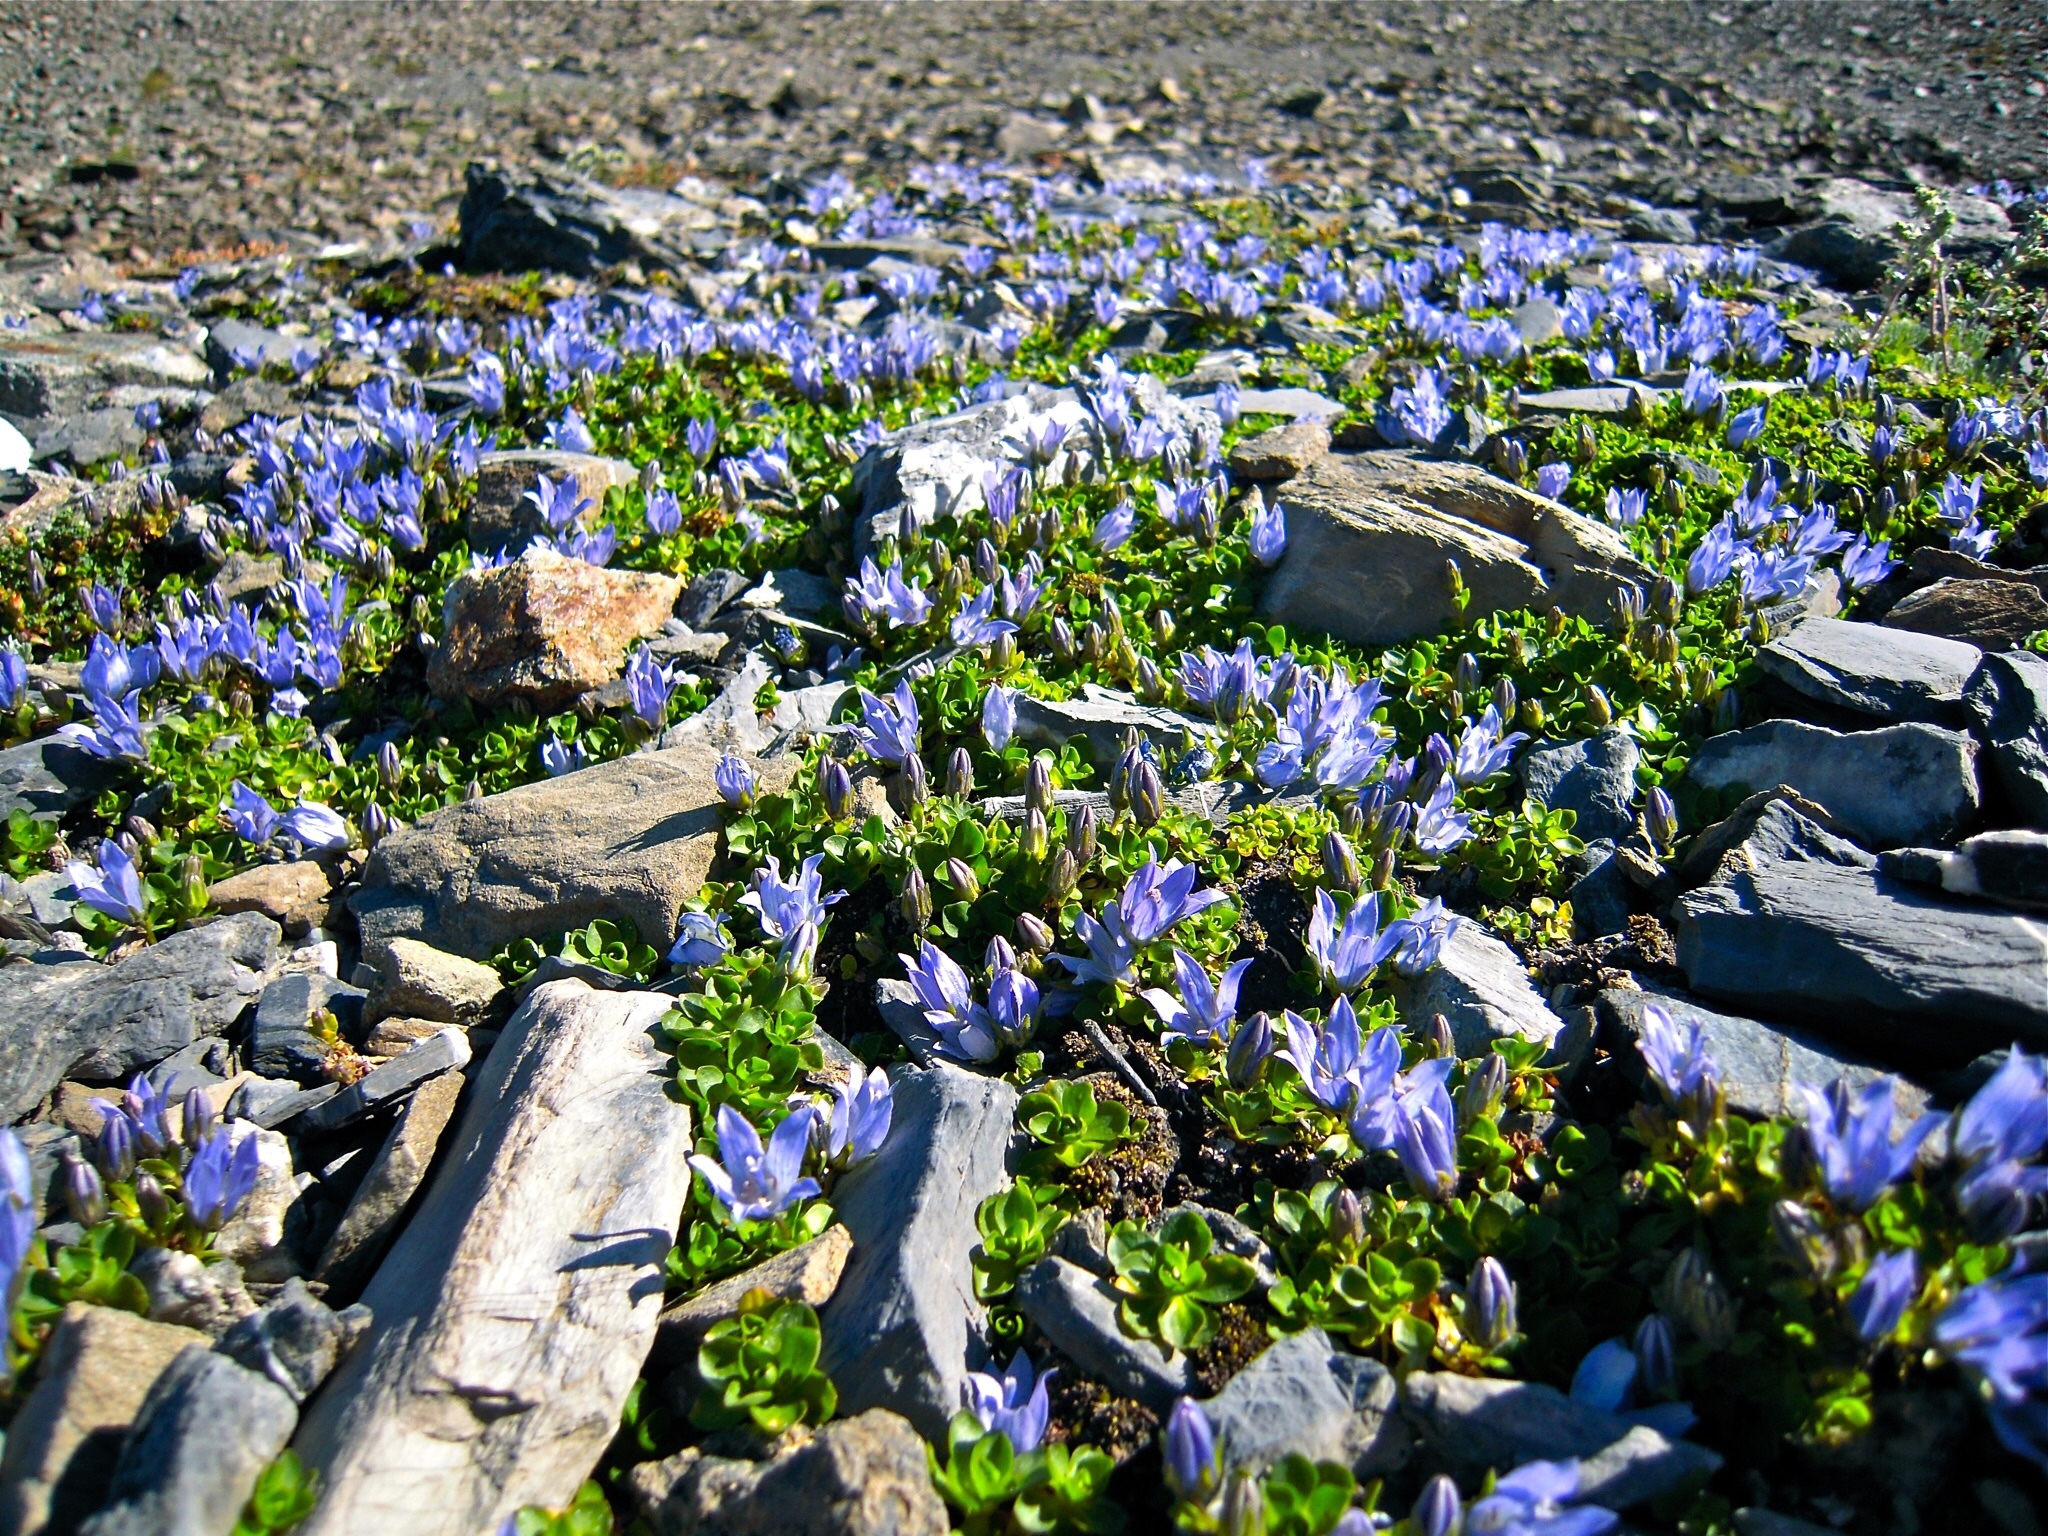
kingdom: Plantae
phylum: Tracheophyta
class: Magnoliopsida
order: Asterales
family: Campanulaceae
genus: Campanula
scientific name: Campanula cenisia
